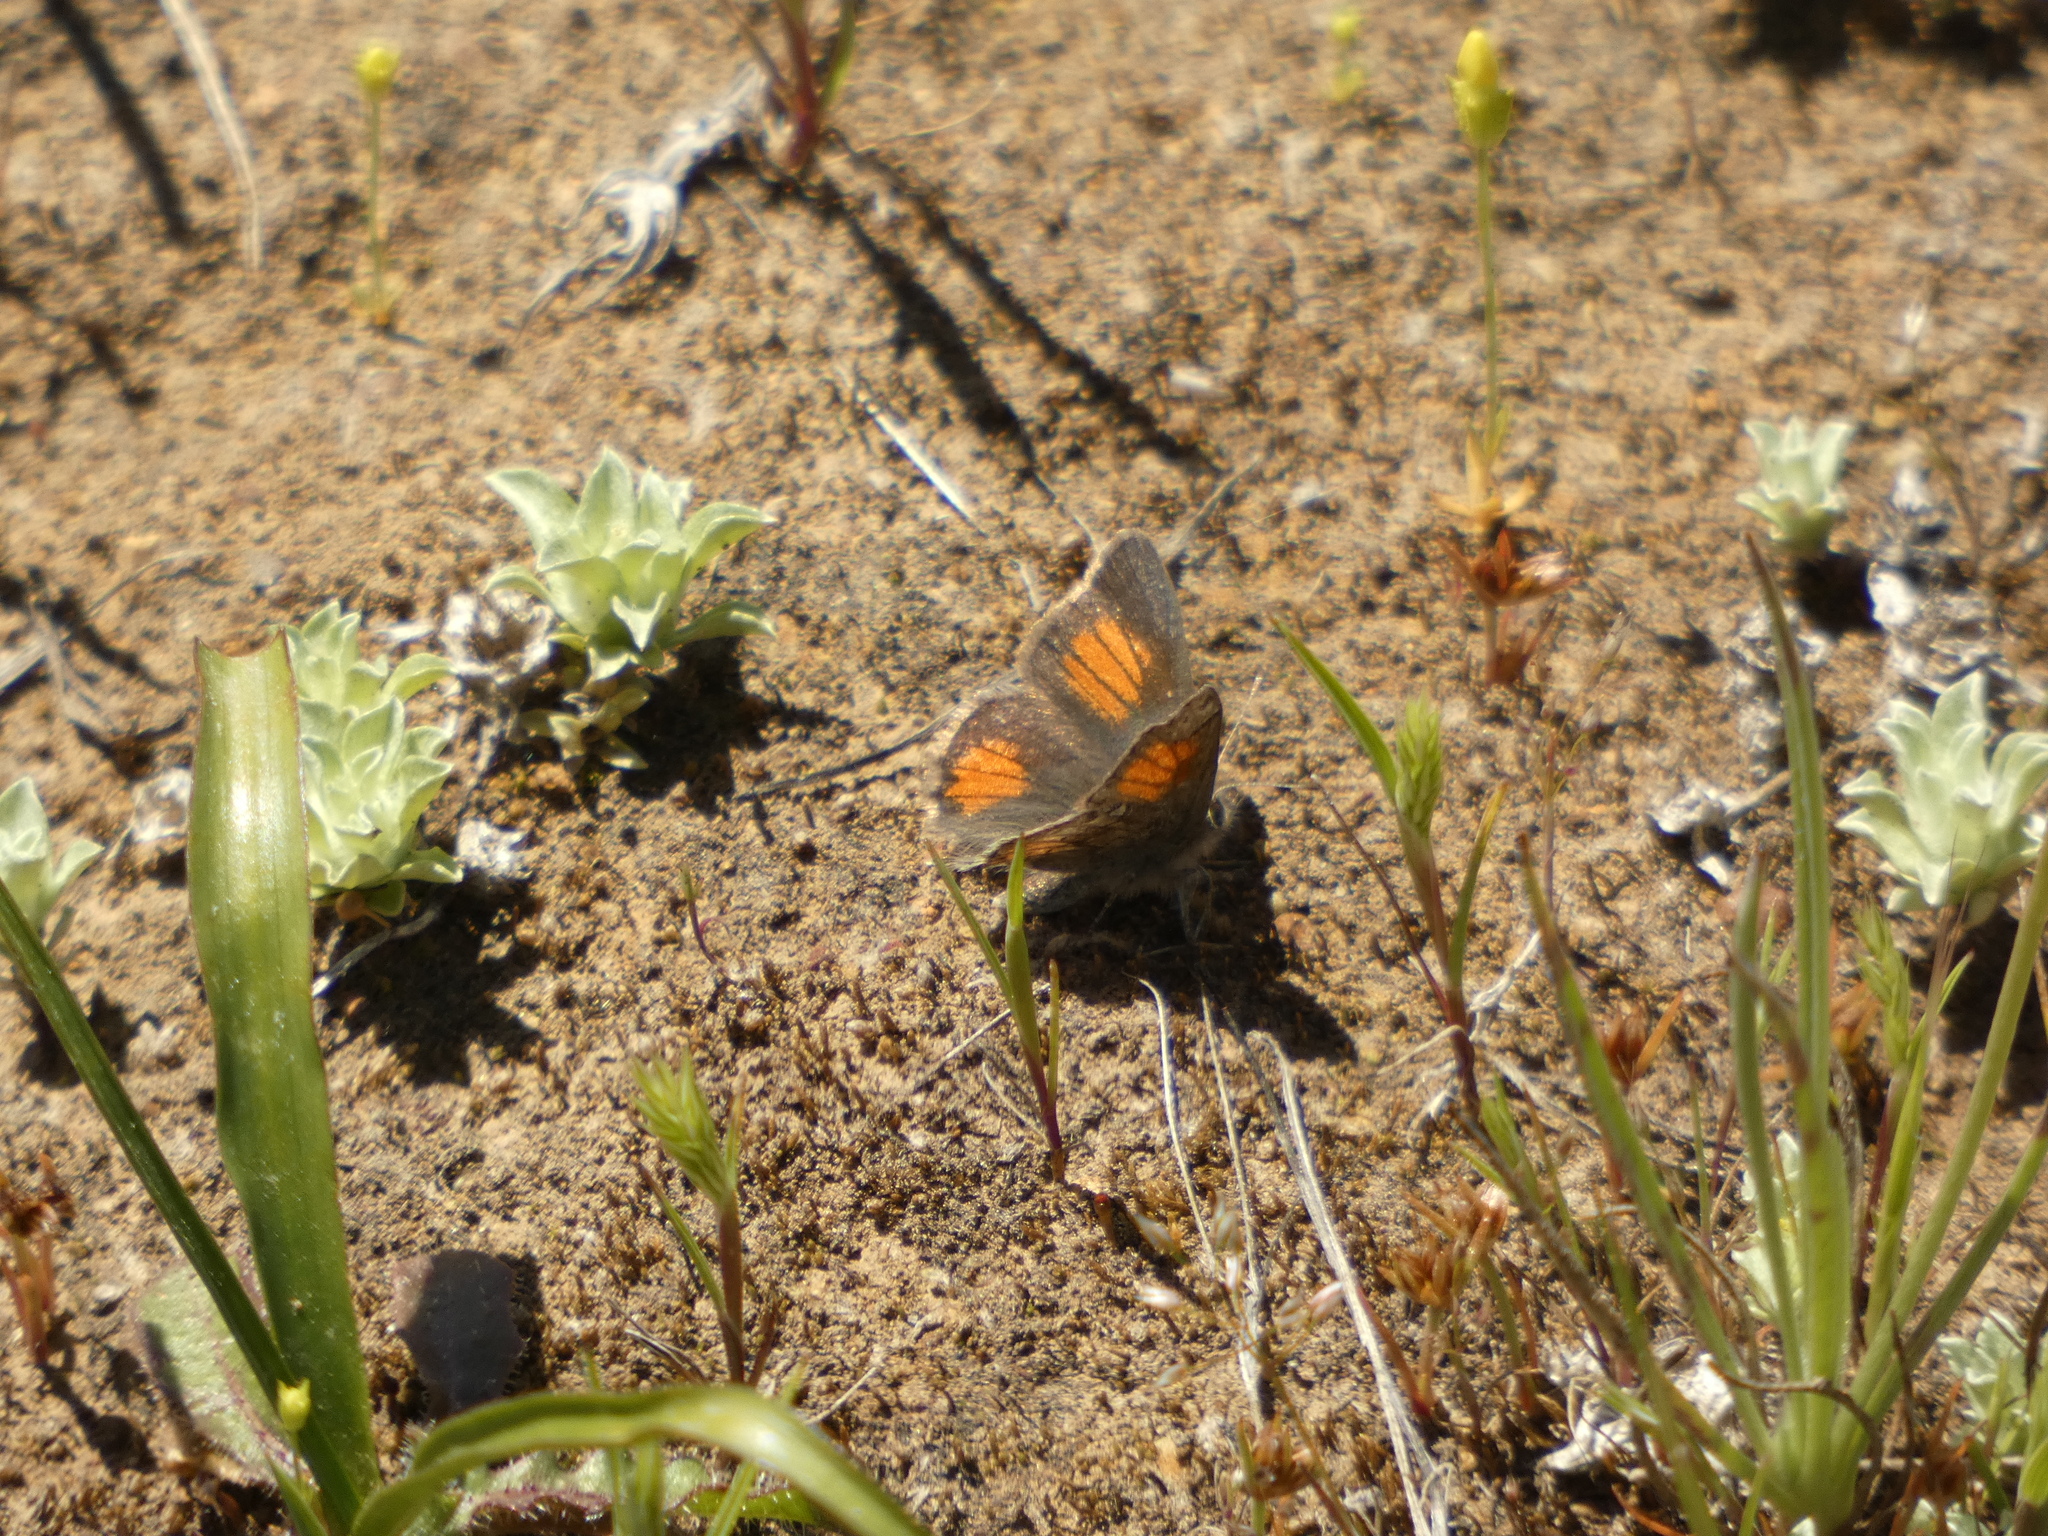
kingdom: Animalia
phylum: Arthropoda
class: Insecta
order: Lepidoptera
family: Lycaenidae
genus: Strymon
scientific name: Strymon
